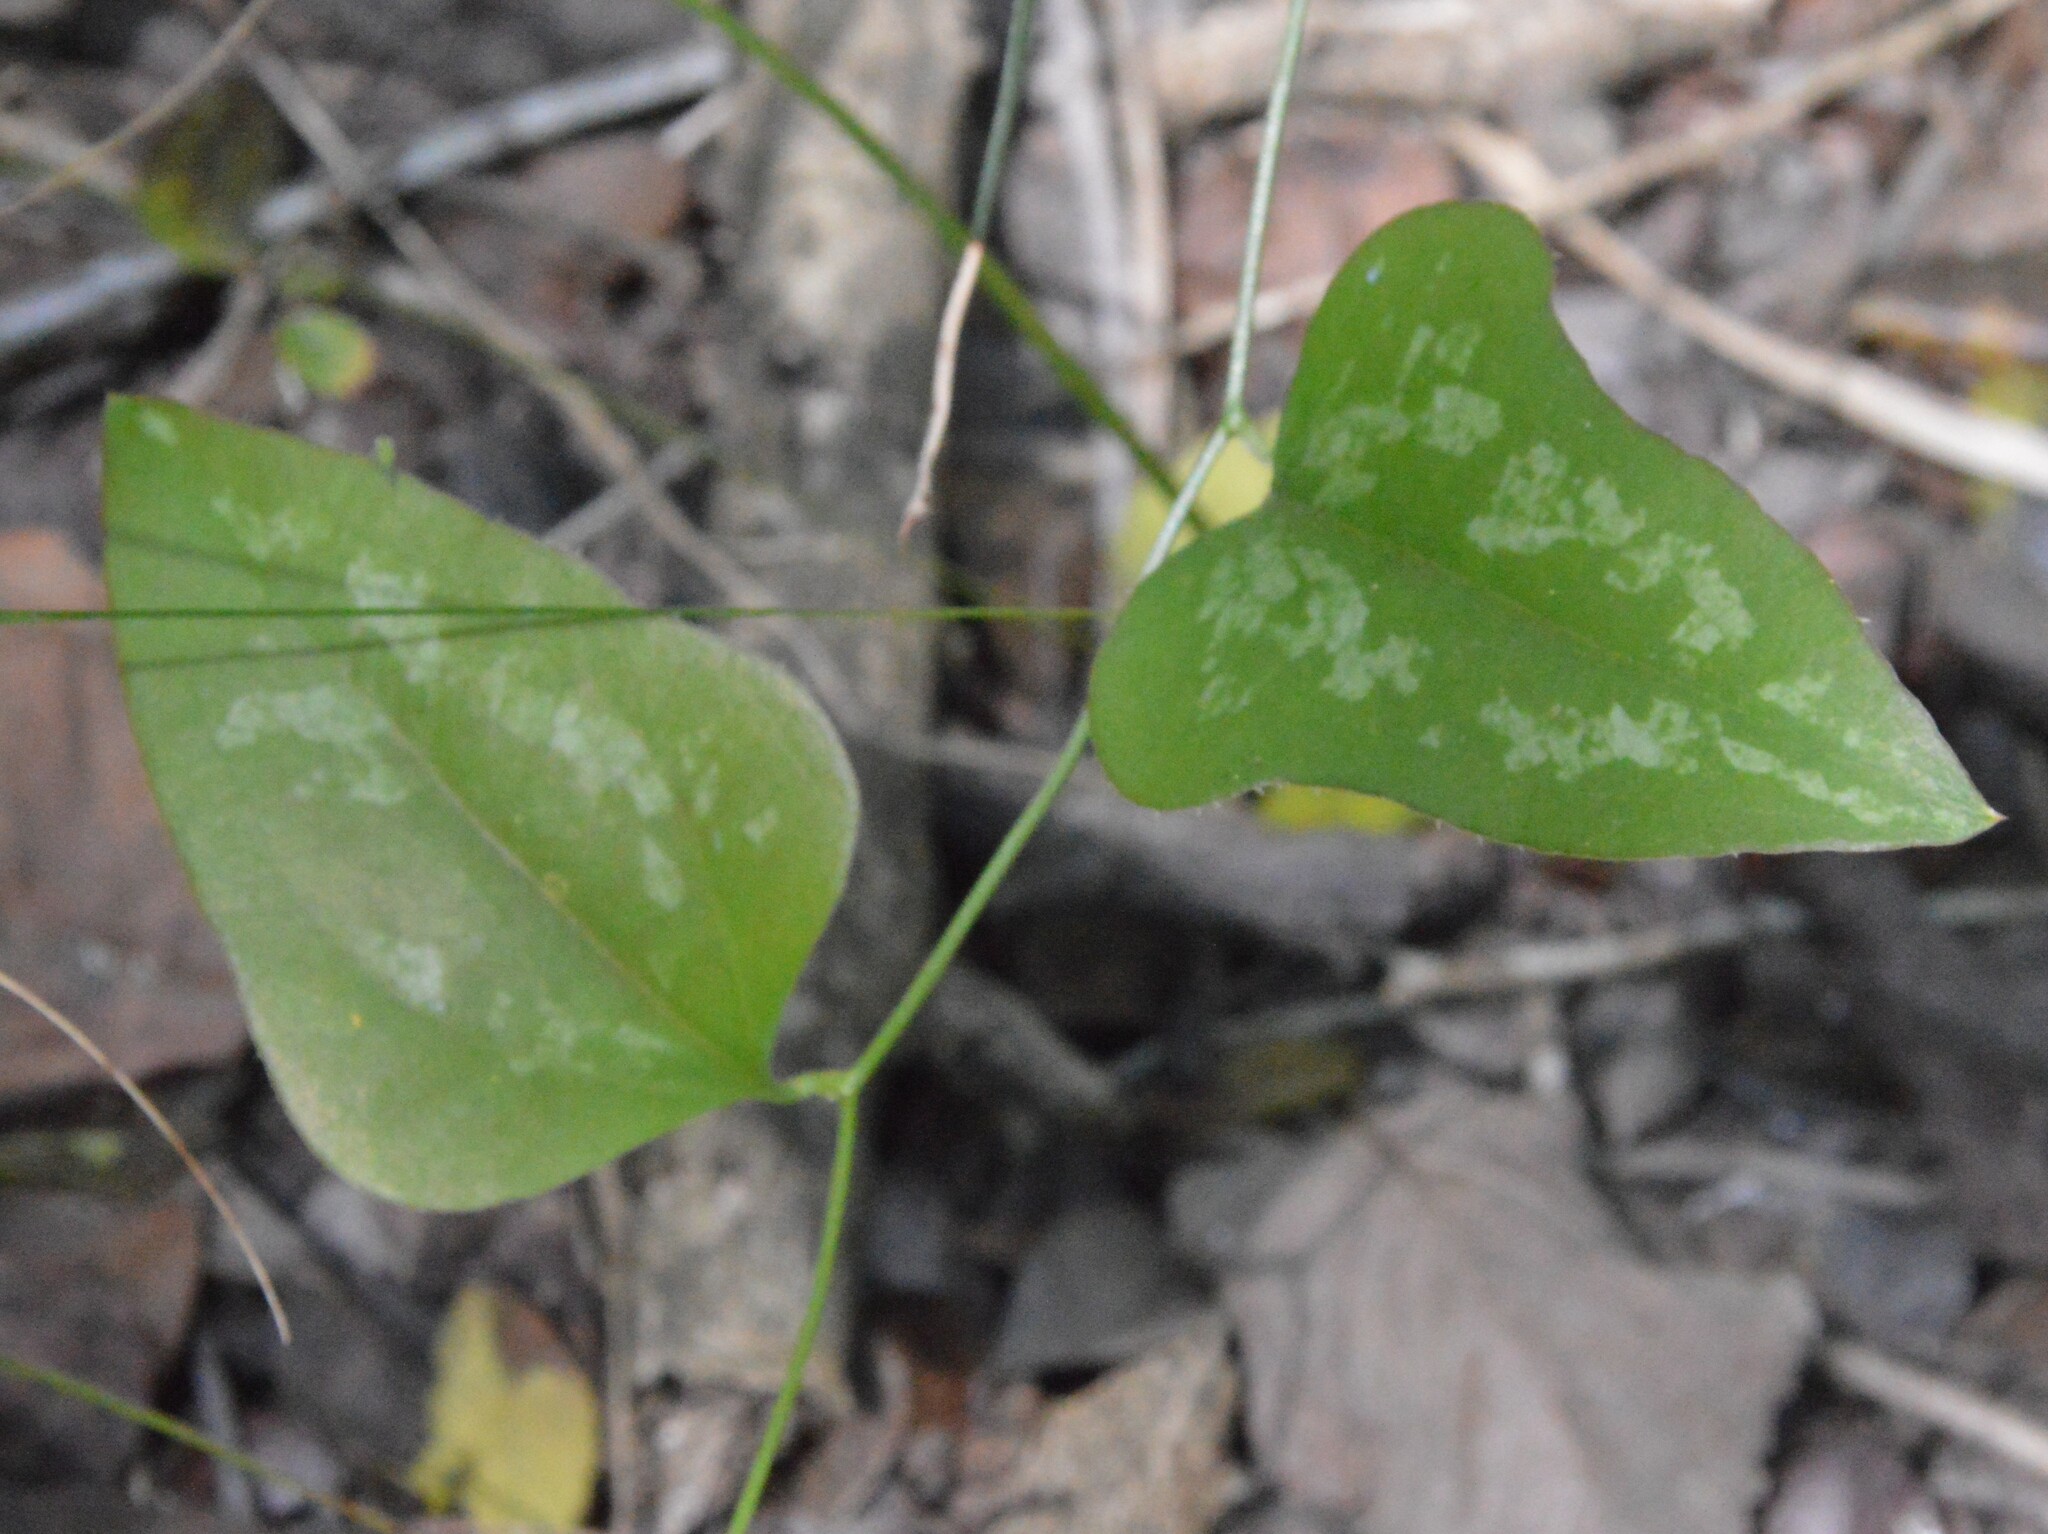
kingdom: Plantae
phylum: Tracheophyta
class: Liliopsida
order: Liliales
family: Smilacaceae
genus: Smilax
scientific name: Smilax bona-nox
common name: Catbrier
